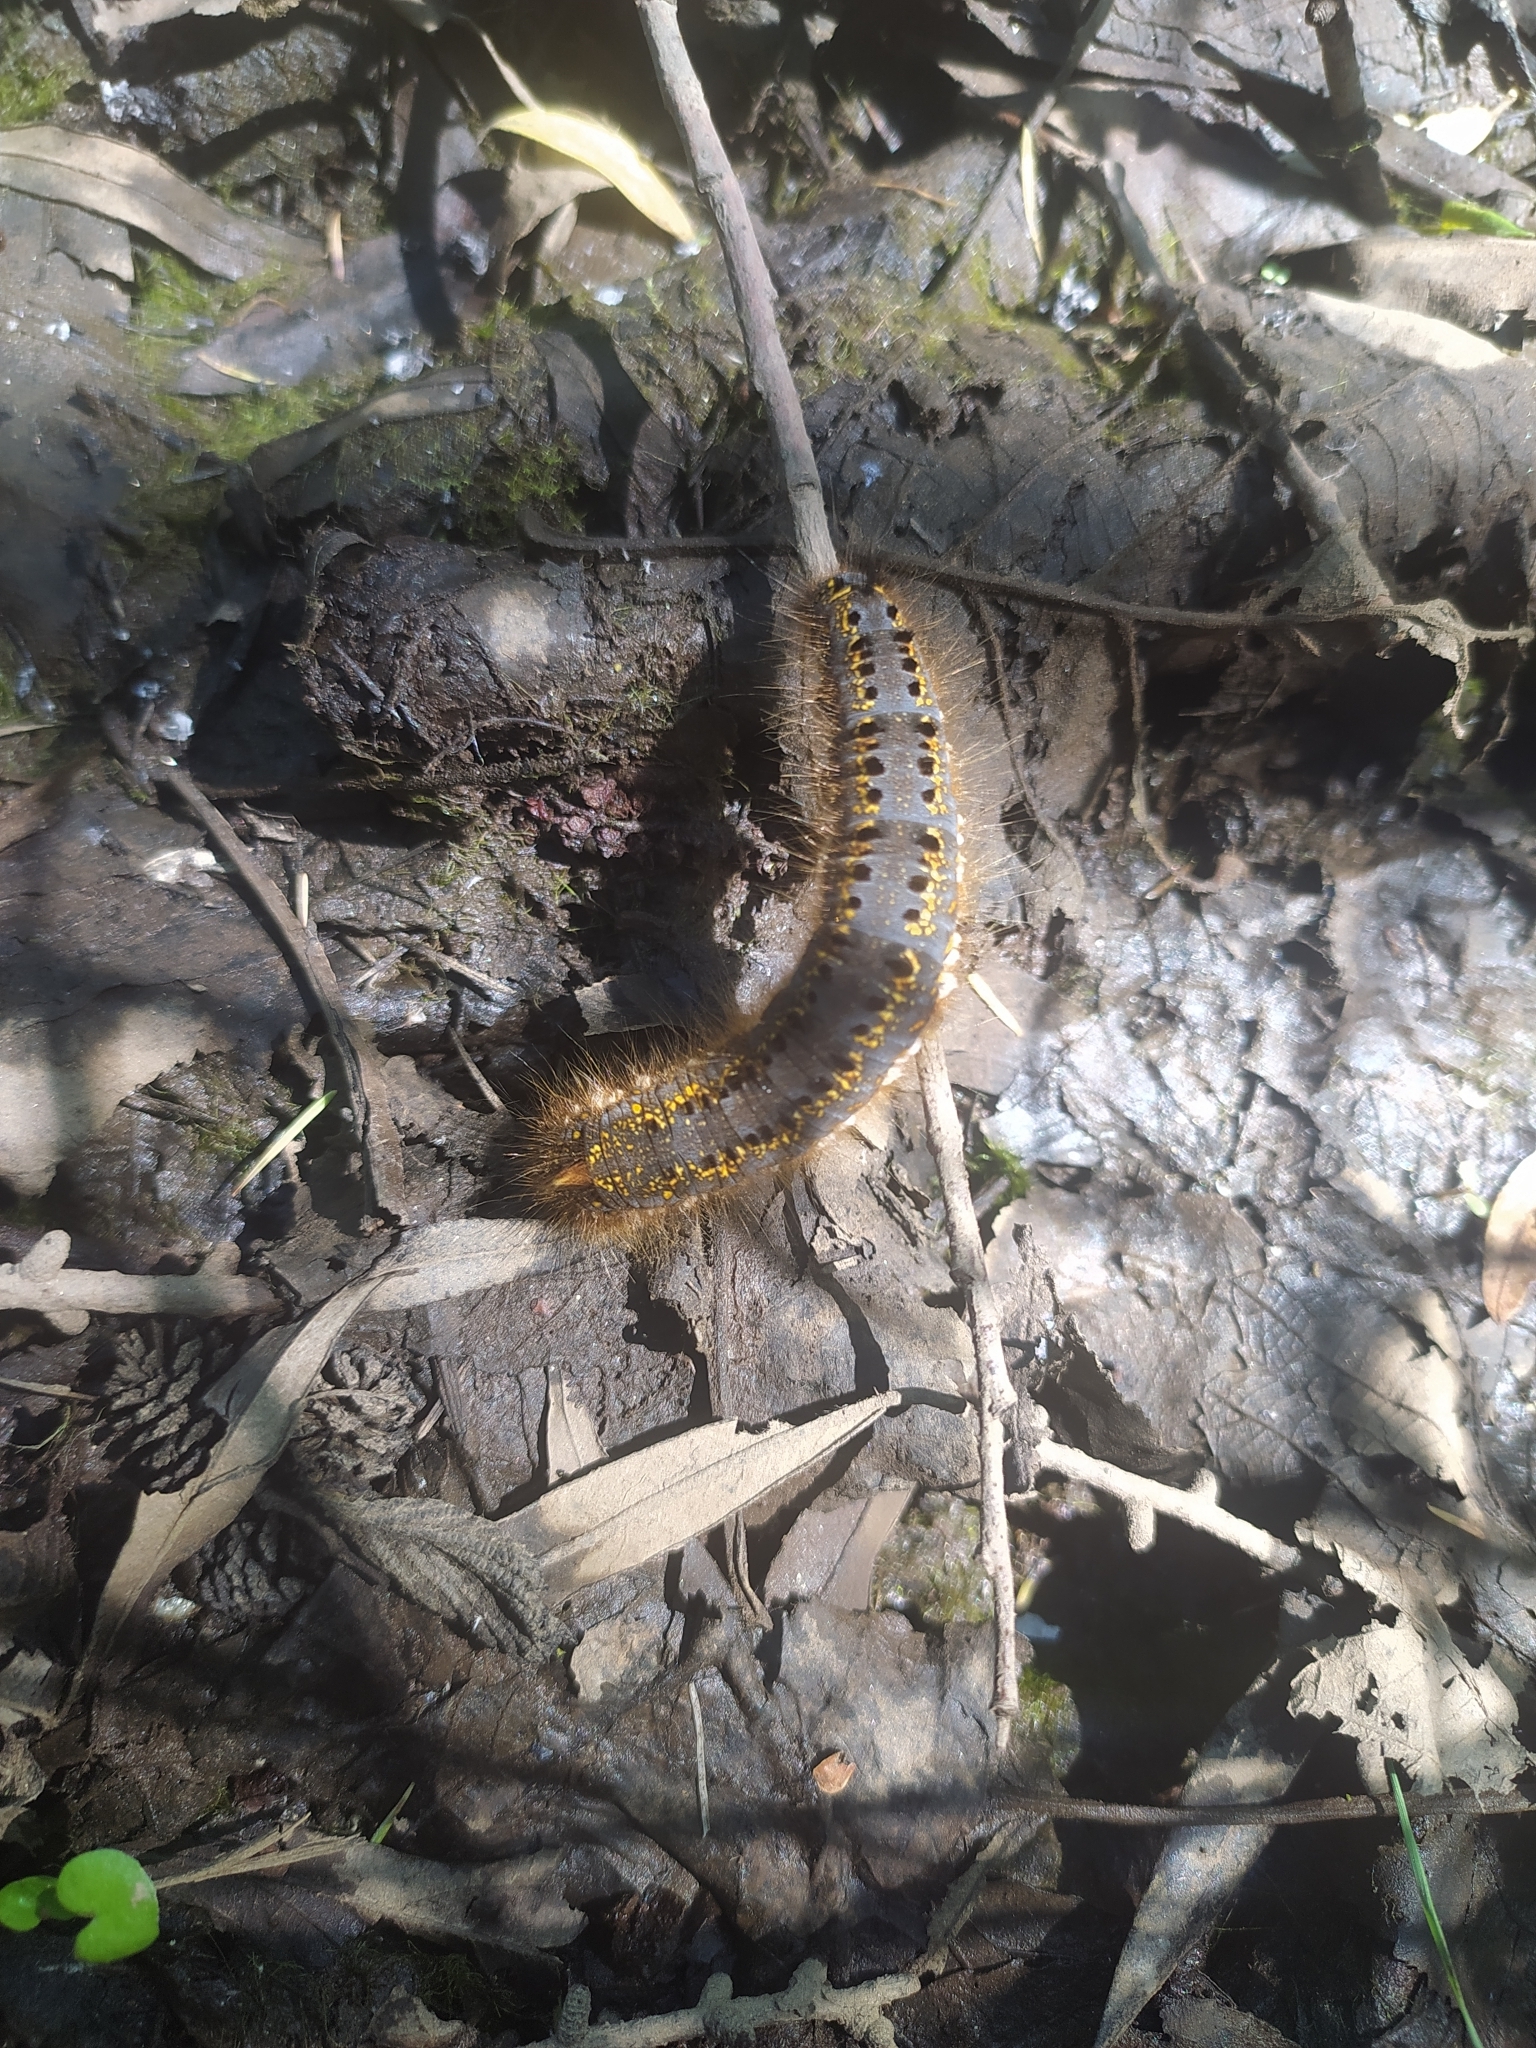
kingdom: Animalia
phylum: Arthropoda
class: Insecta
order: Lepidoptera
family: Lasiocampidae
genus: Euthrix
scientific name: Euthrix potatoria
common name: Drinker
